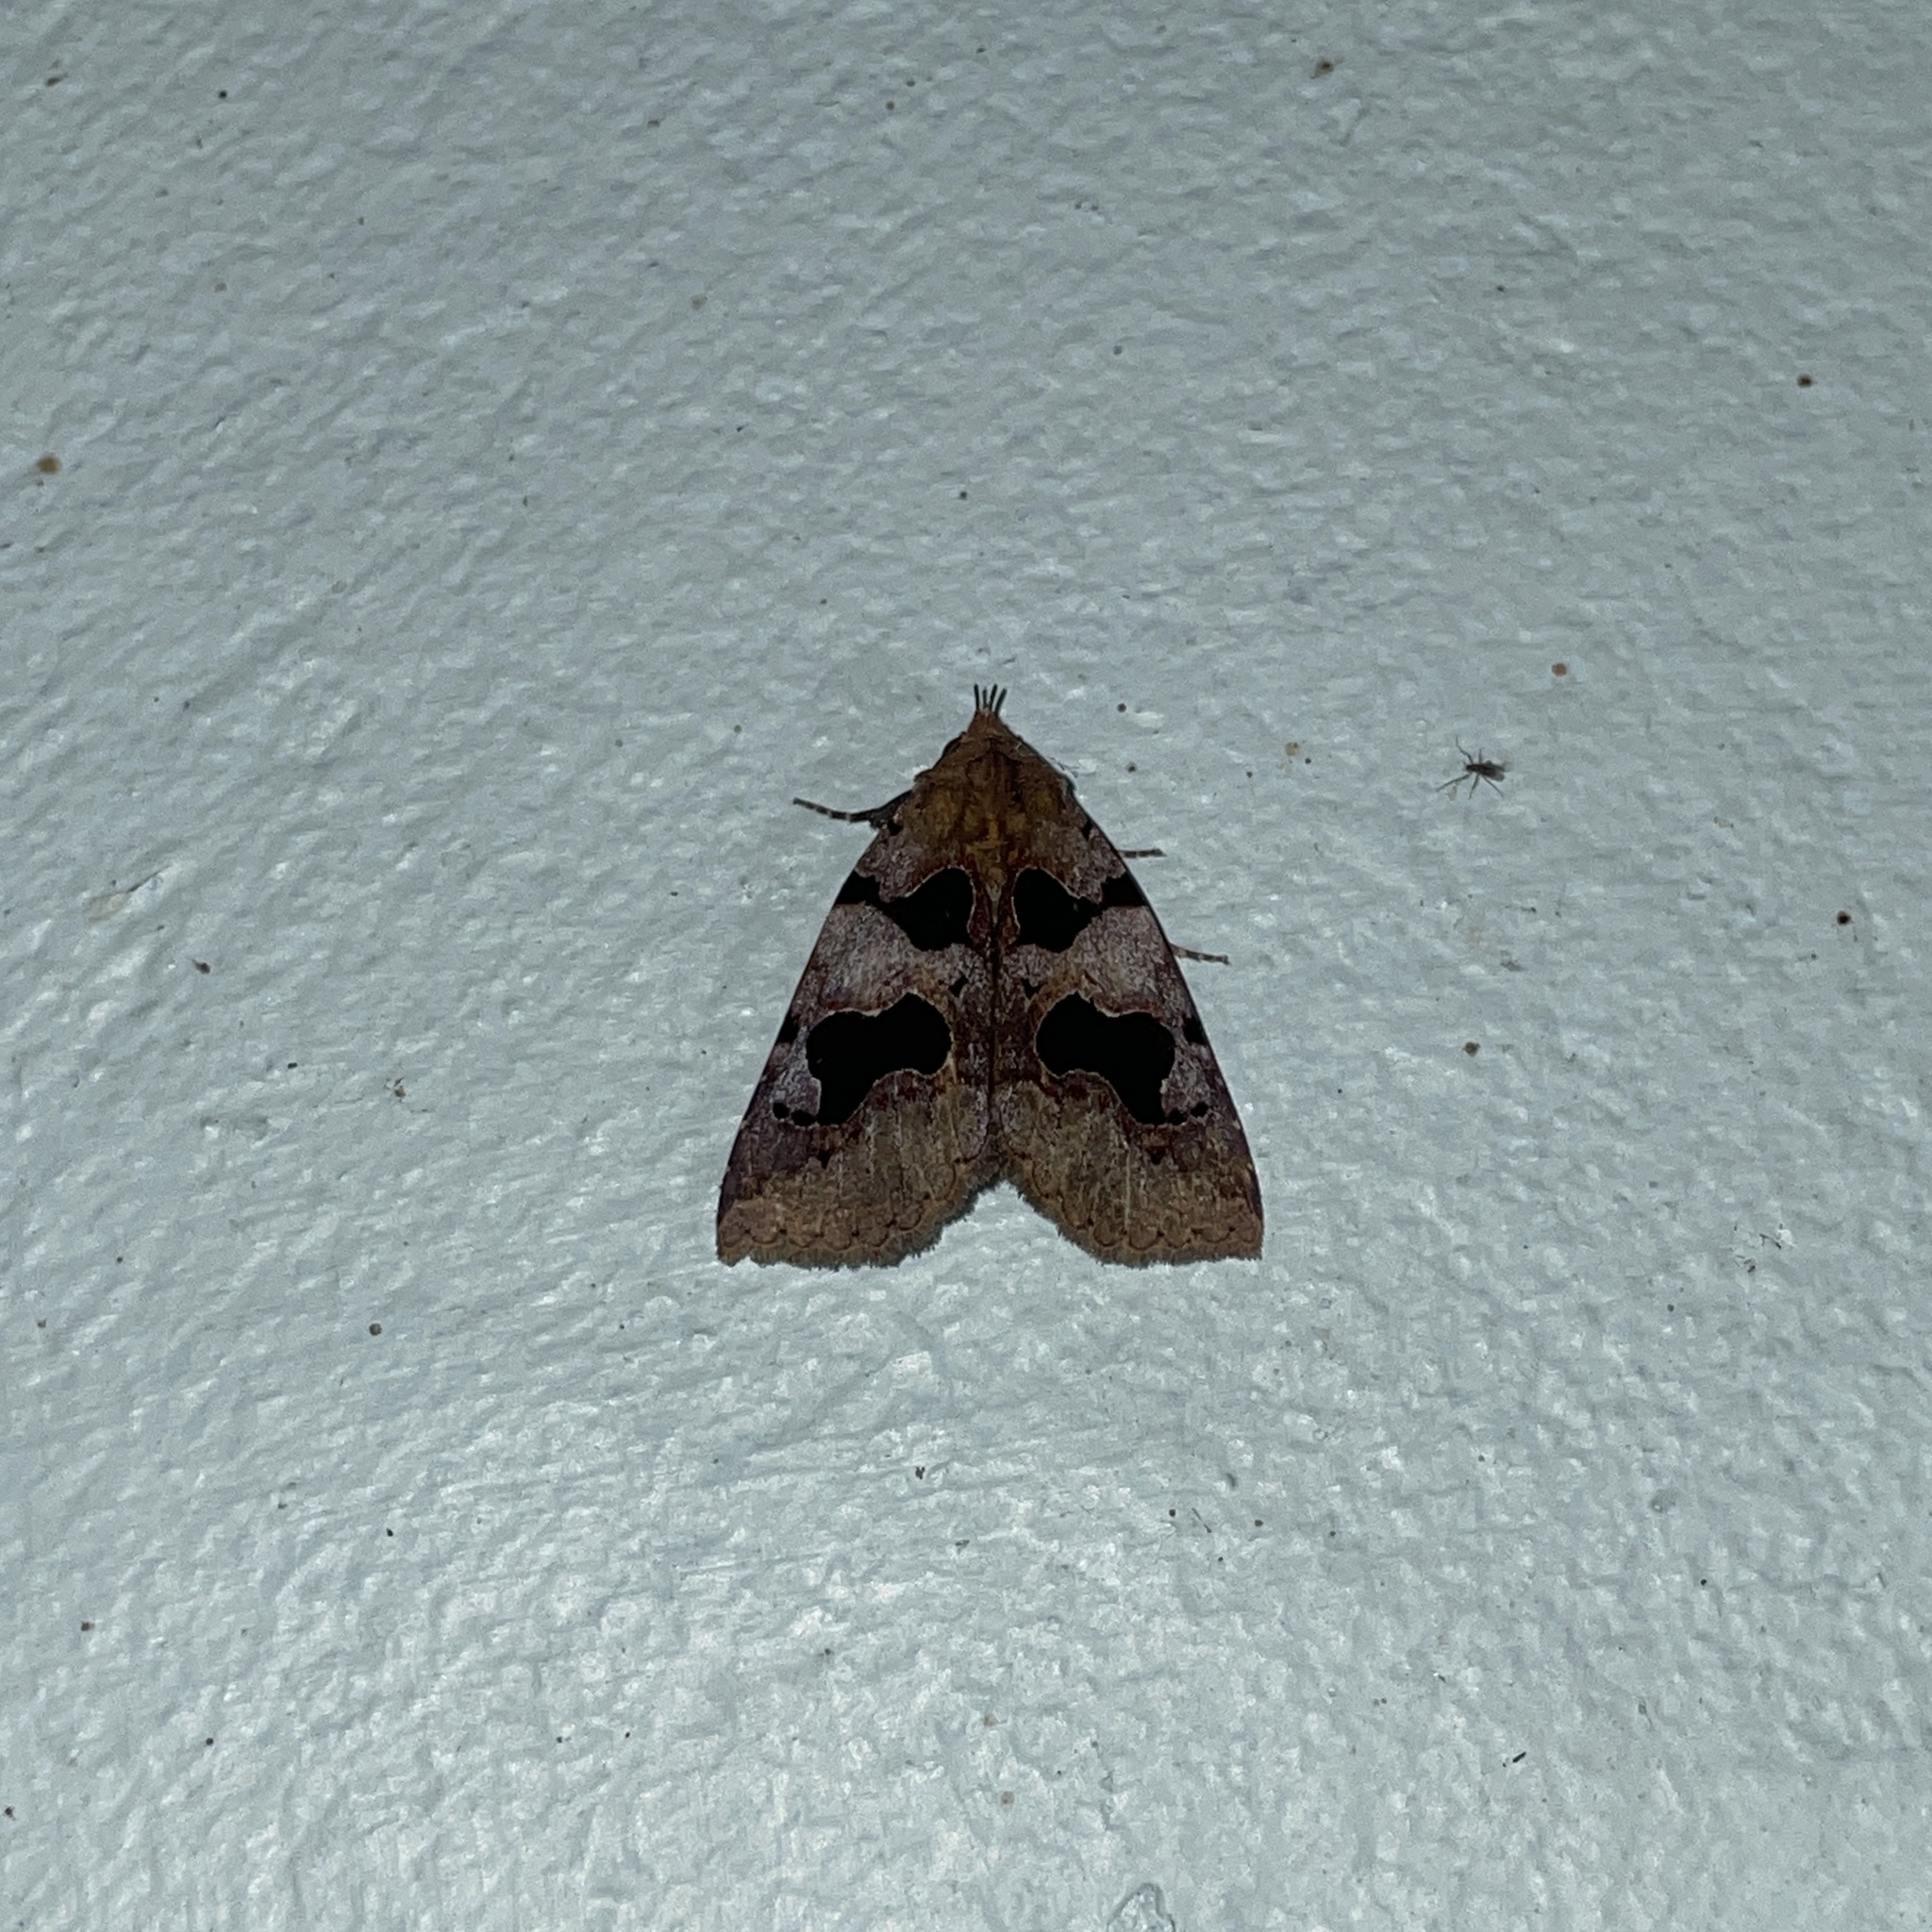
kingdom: Animalia
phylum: Arthropoda
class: Insecta
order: Lepidoptera
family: Erebidae
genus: Athyrma
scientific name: Athyrma adjutrix
